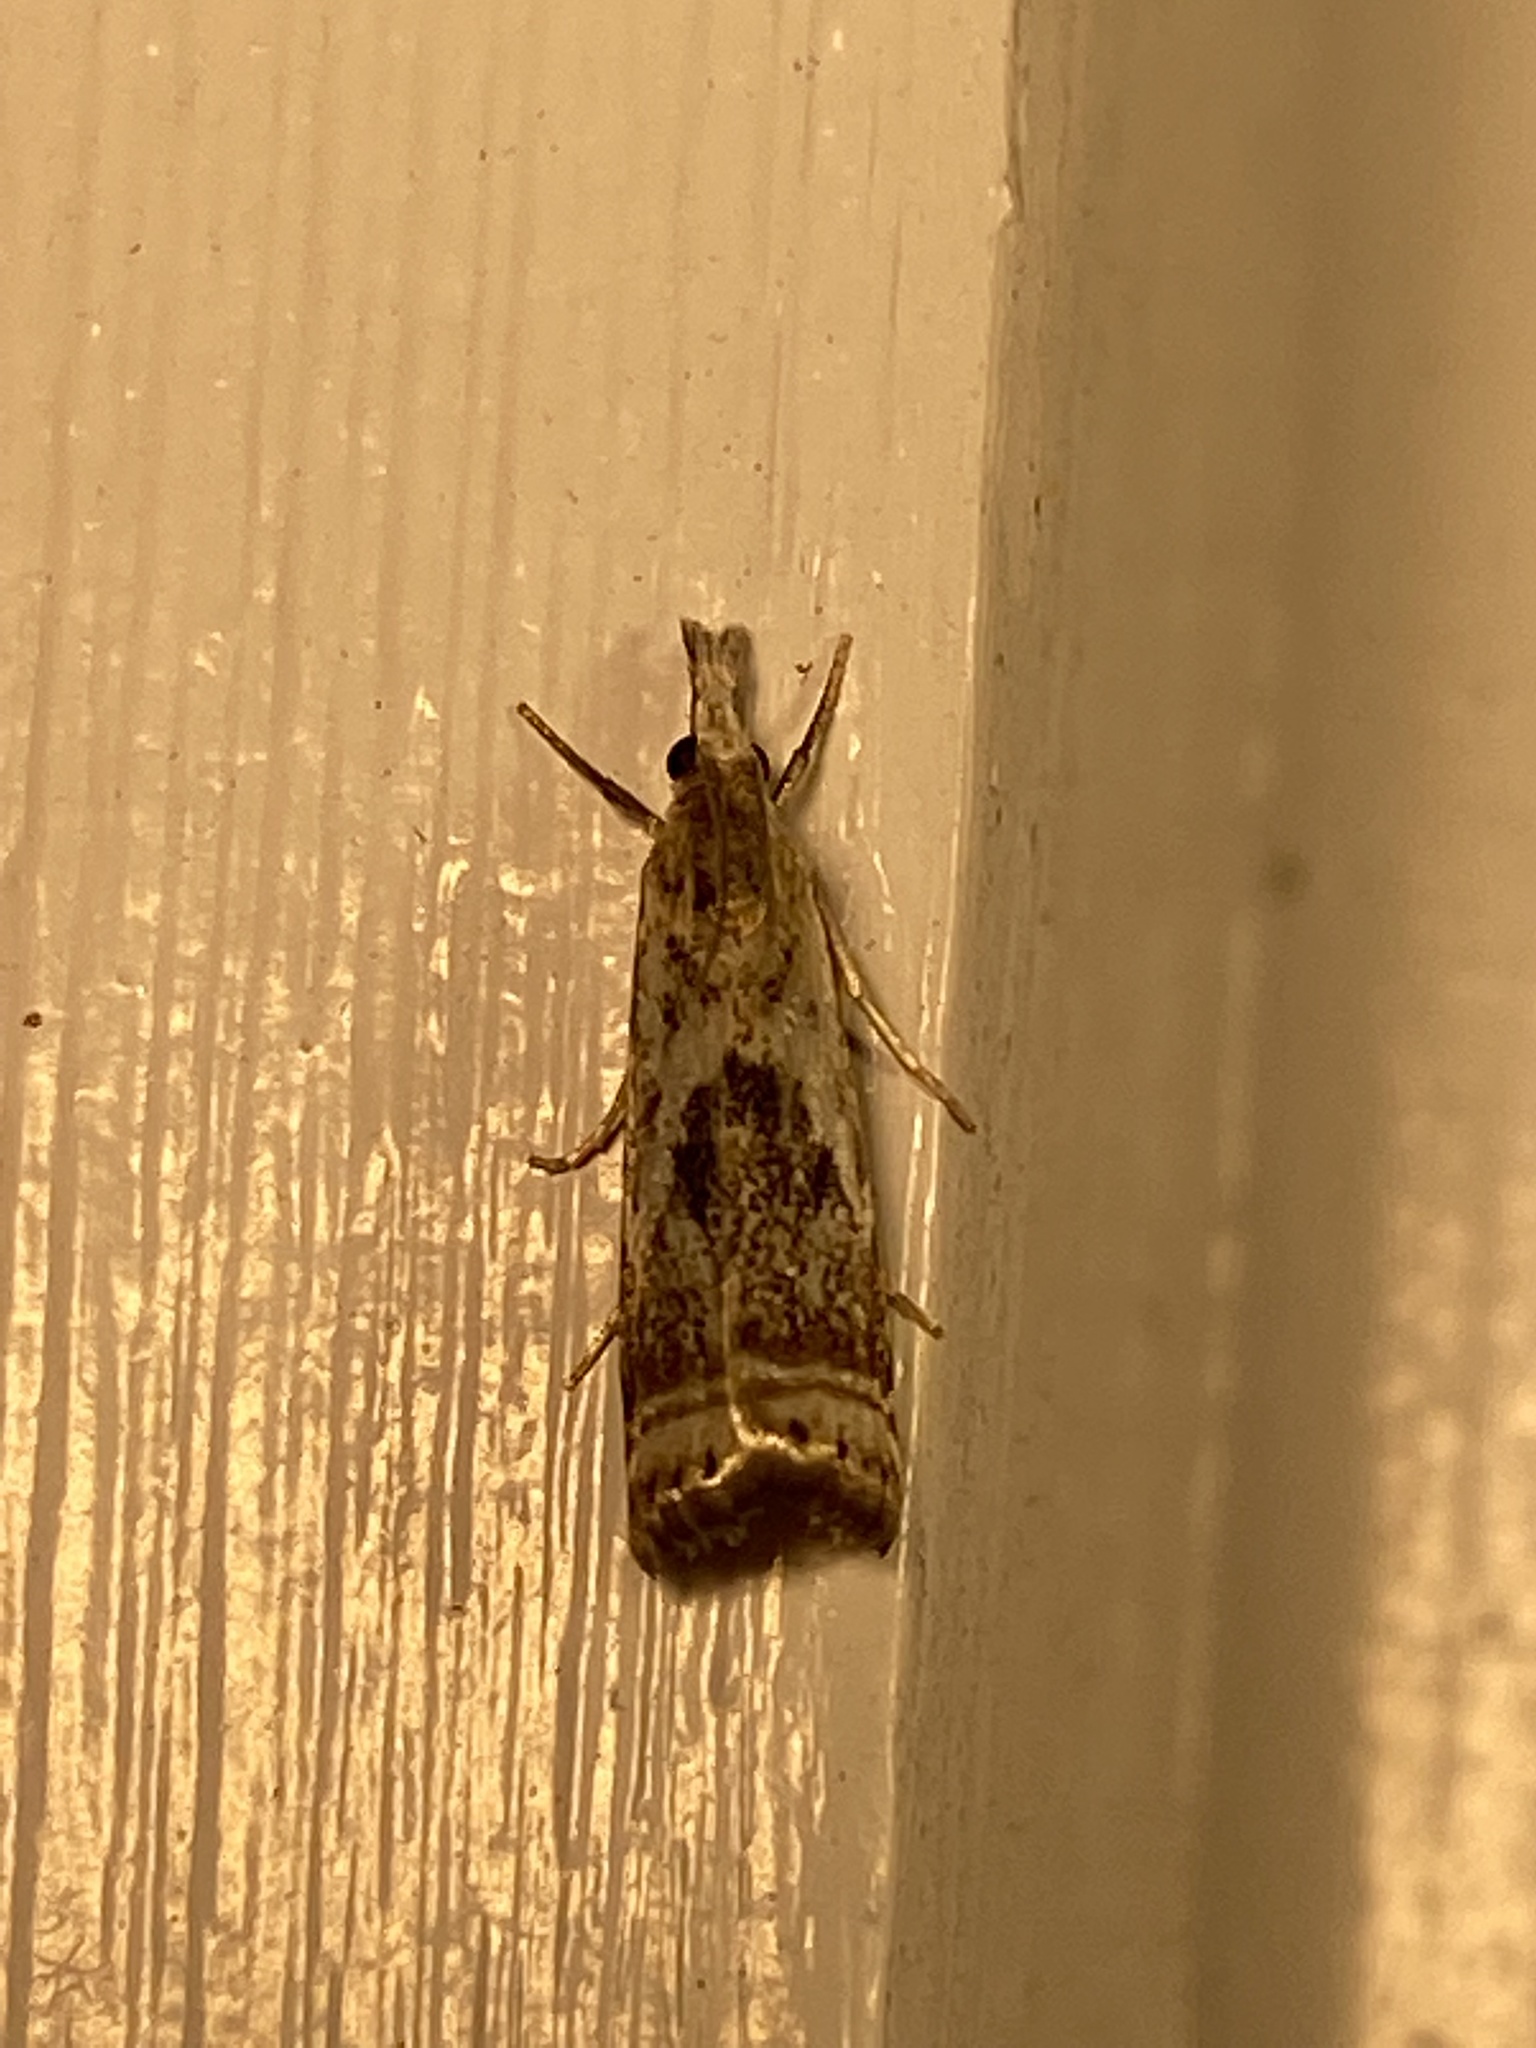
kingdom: Animalia
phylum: Arthropoda
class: Insecta
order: Lepidoptera
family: Crambidae
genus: Microcrambus
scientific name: Microcrambus elegans
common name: Elegant grass-veneer
